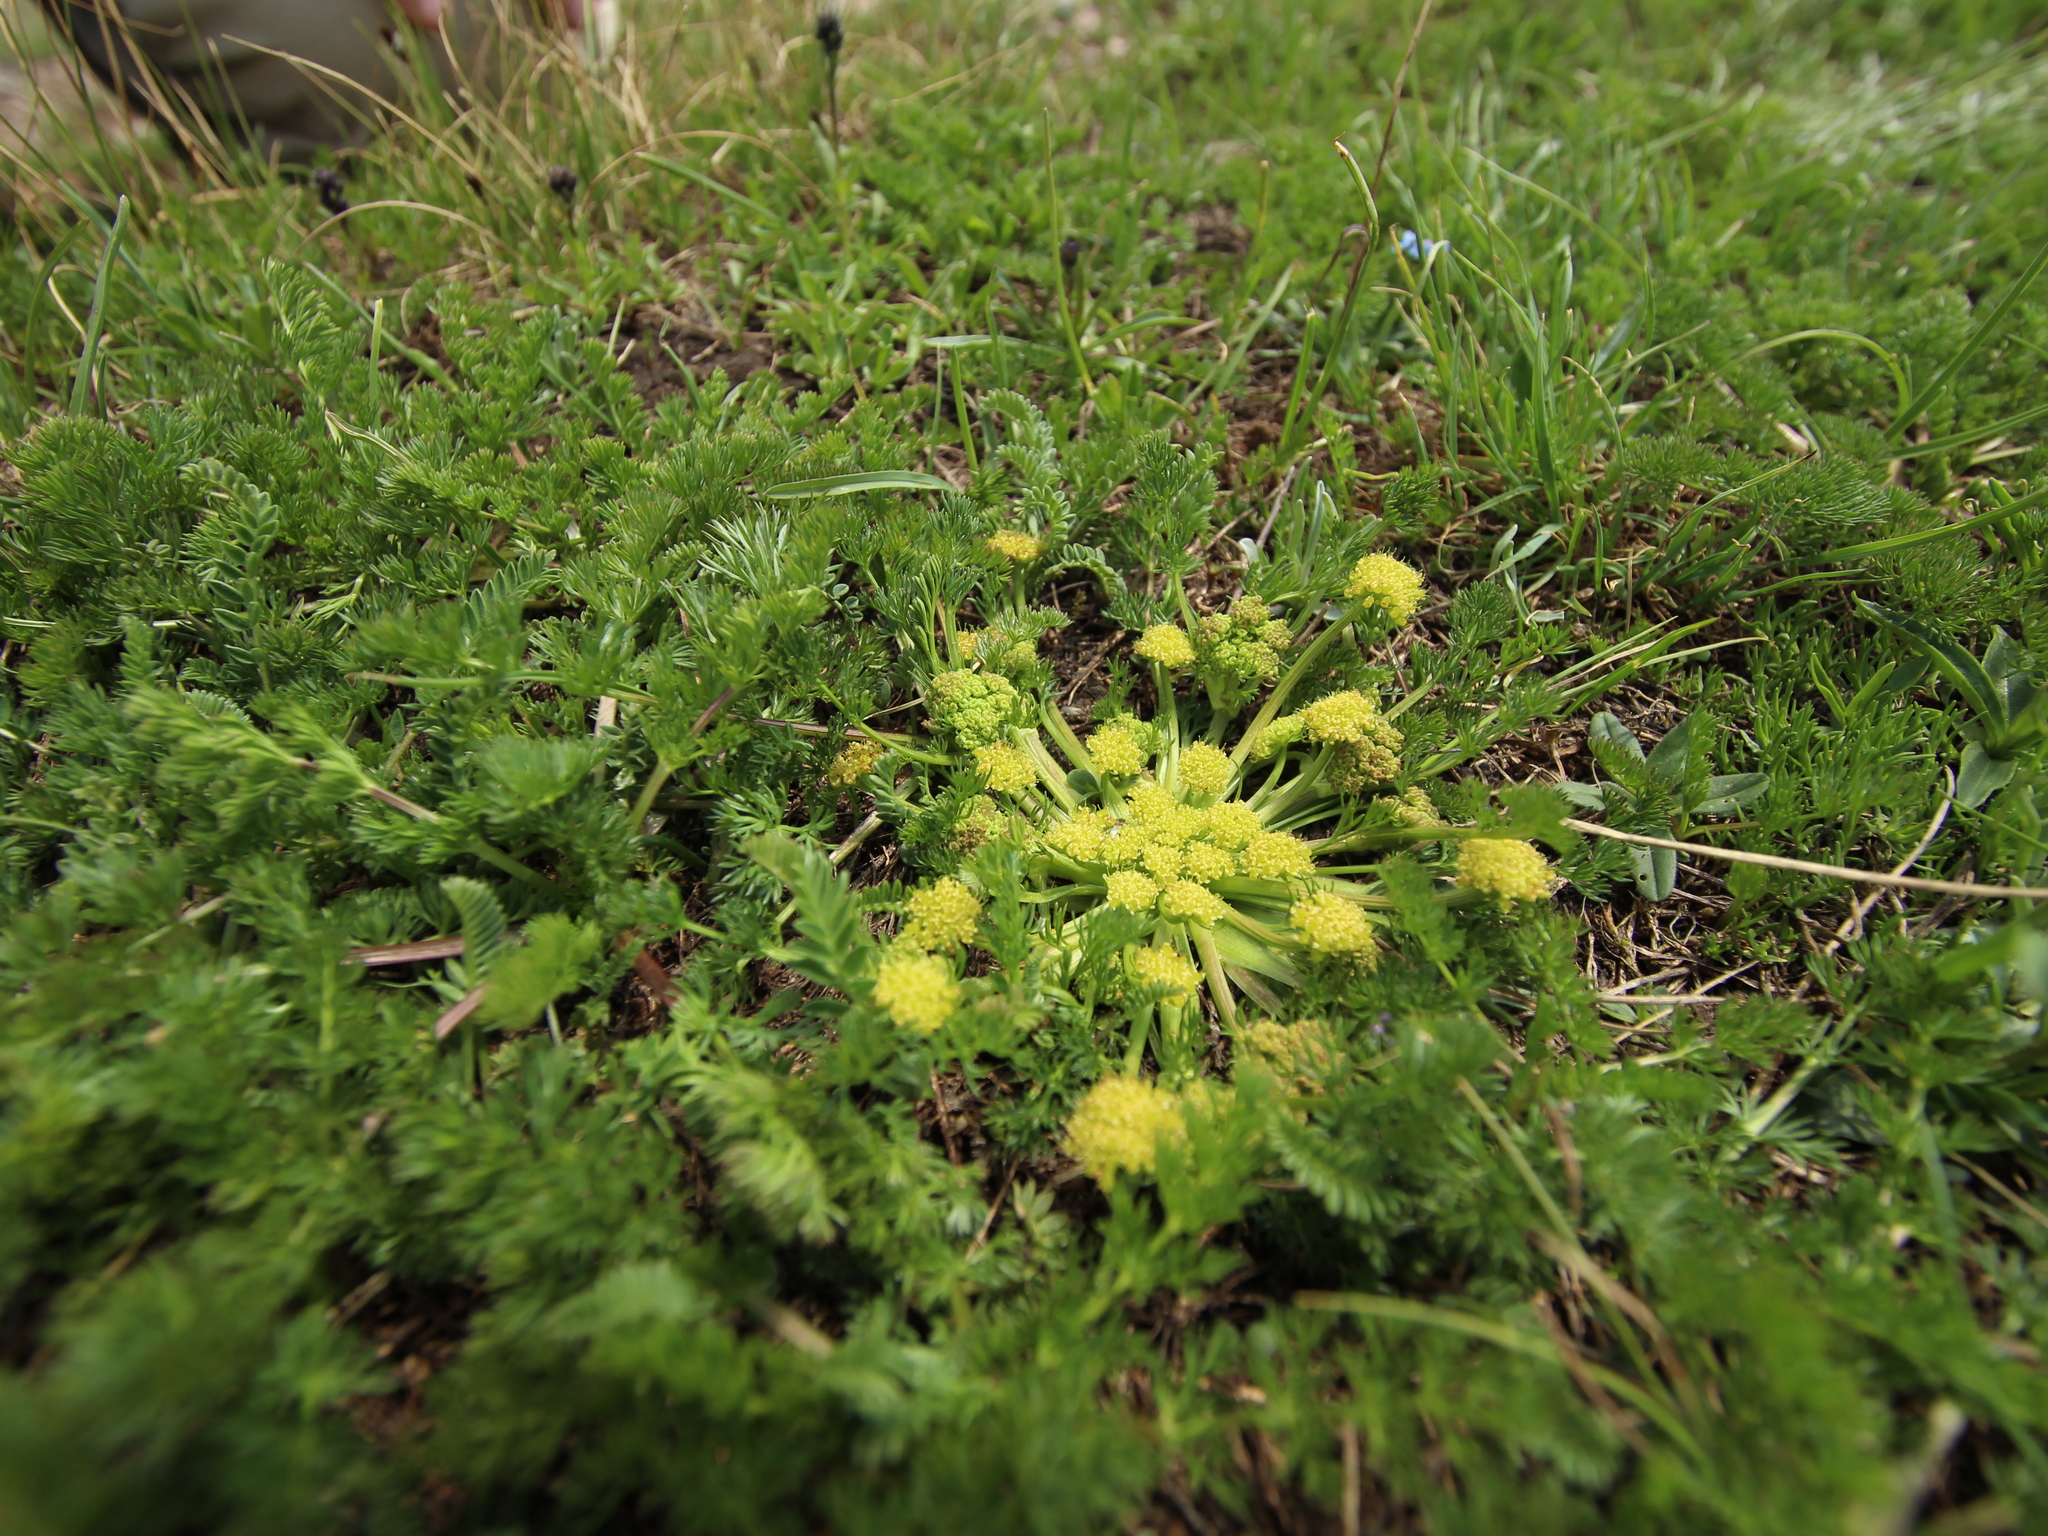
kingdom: Plantae
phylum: Tracheophyta
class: Magnoliopsida
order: Apiales
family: Apiaceae
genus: Chamaesciadium
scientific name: Chamaesciadium acaule
